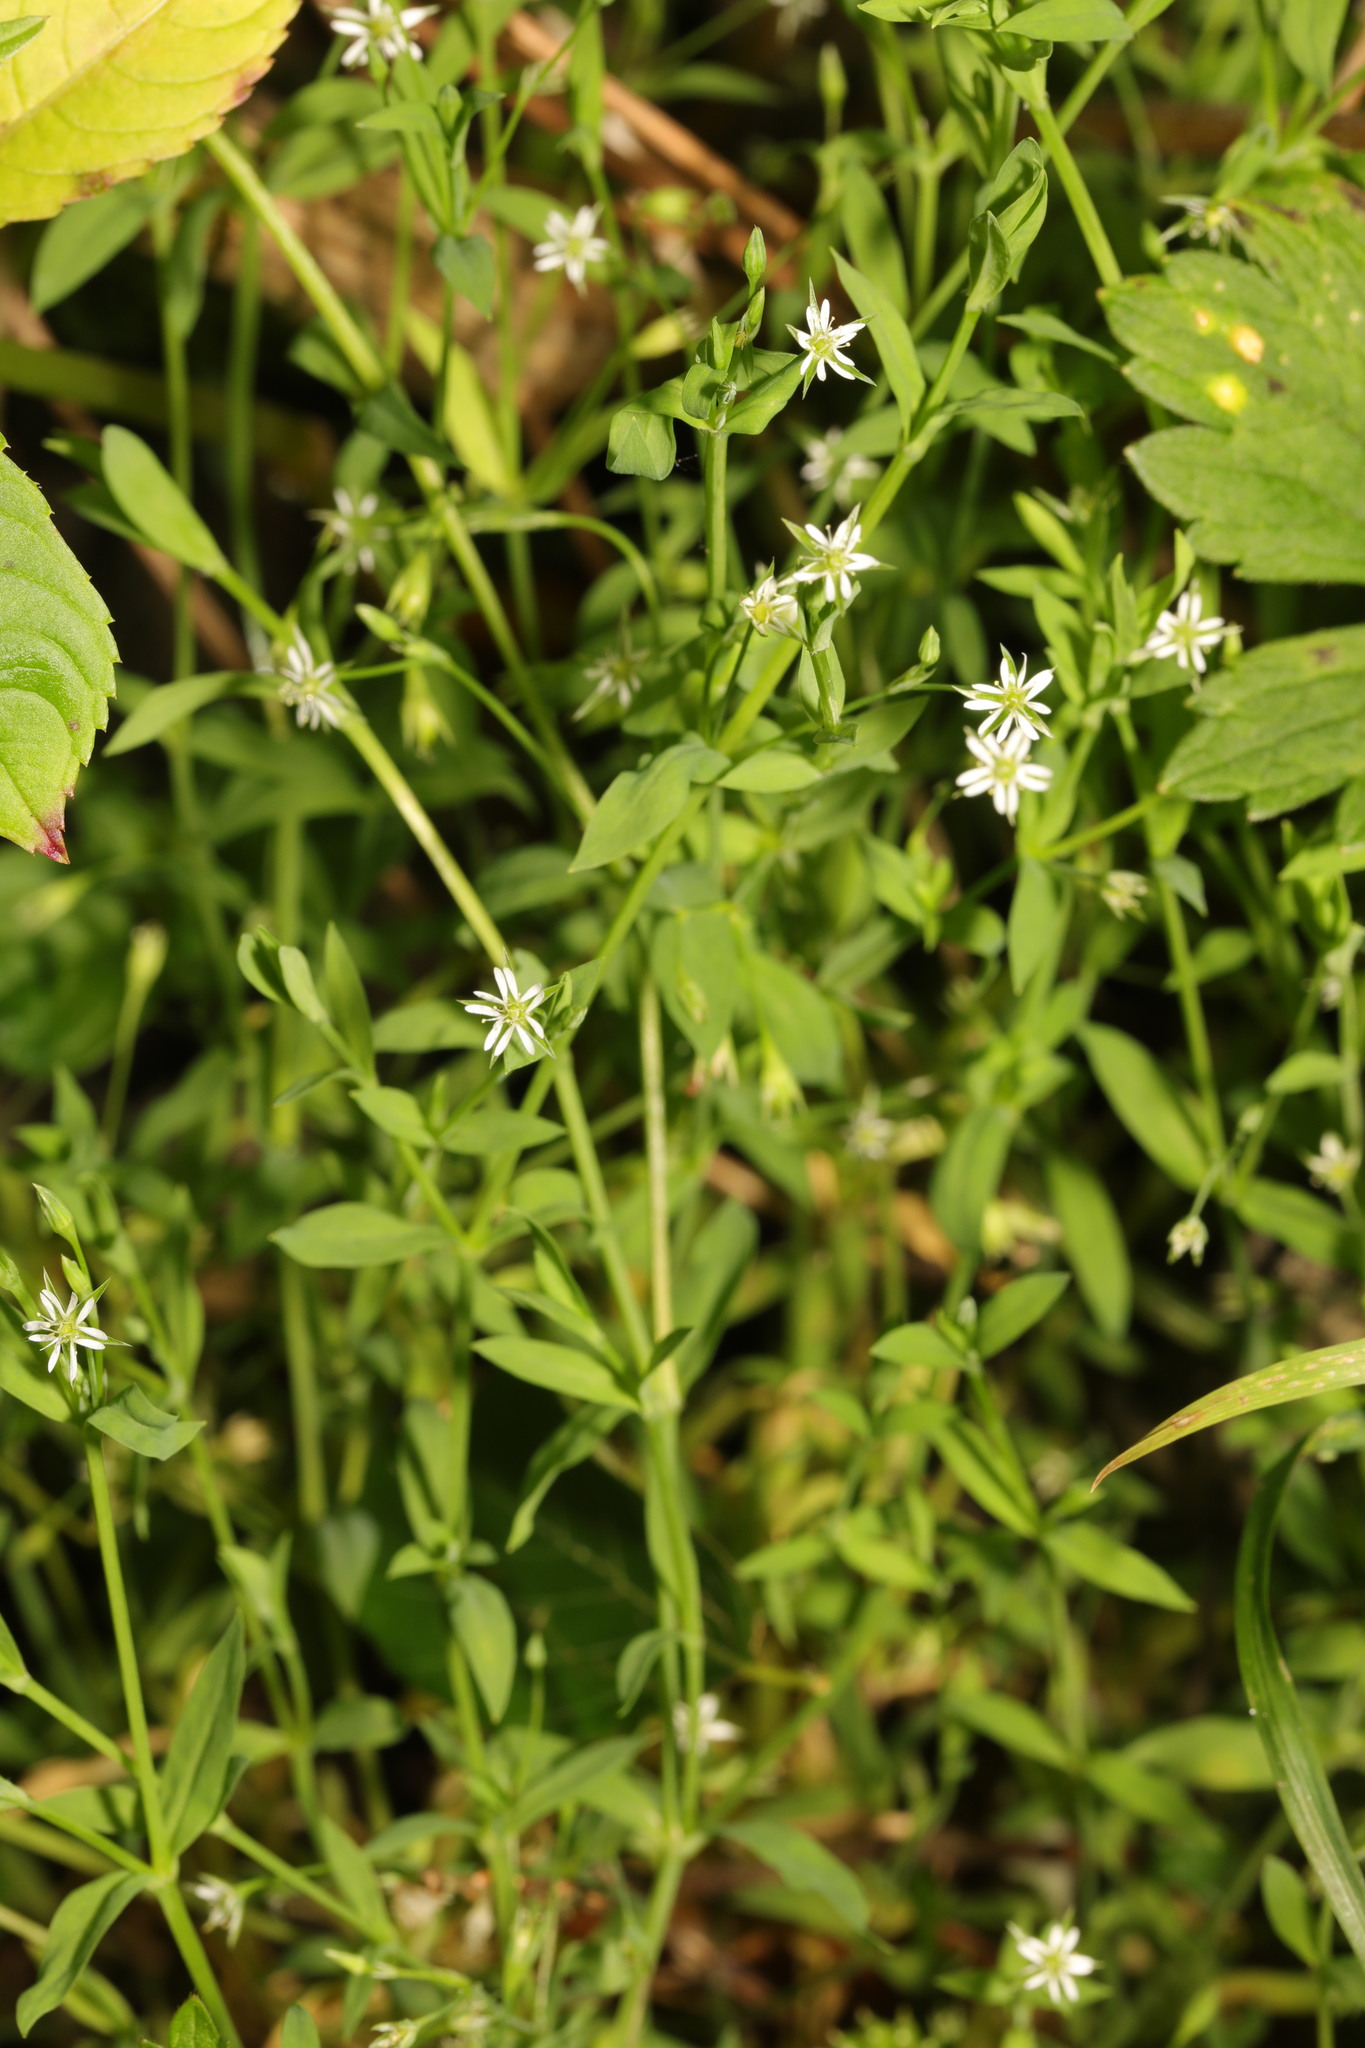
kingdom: Plantae
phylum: Tracheophyta
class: Magnoliopsida
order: Caryophyllales
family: Caryophyllaceae
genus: Stellaria
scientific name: Stellaria alsine
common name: Bog stitchwort
